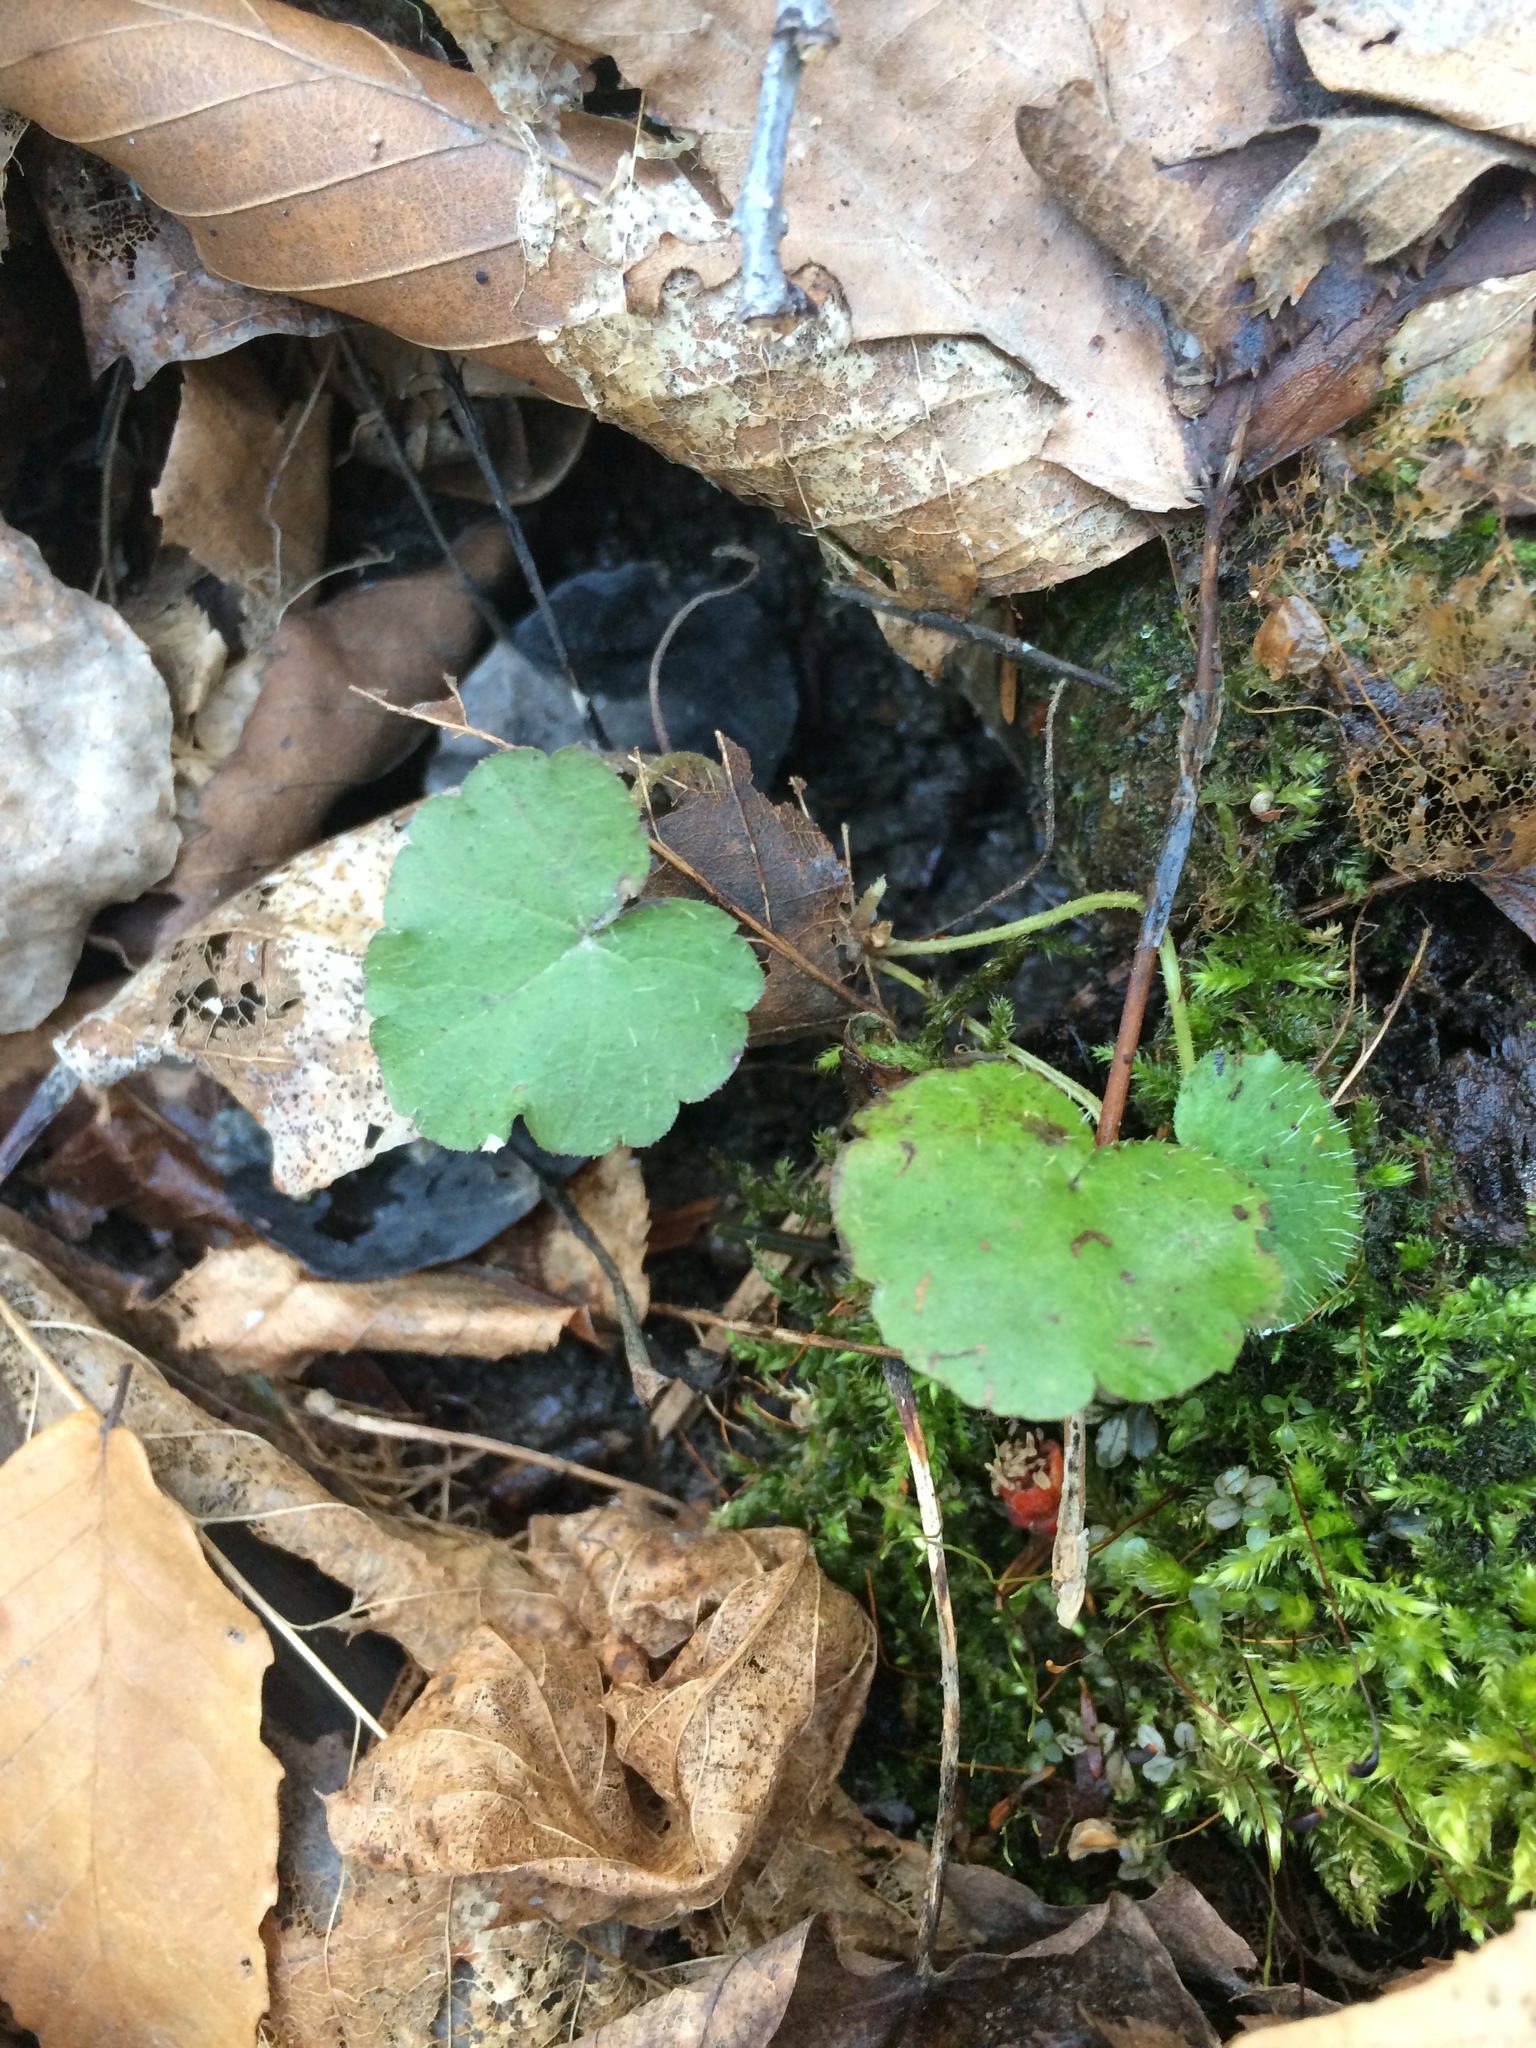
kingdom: Plantae
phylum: Tracheophyta
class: Magnoliopsida
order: Saxifragales
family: Saxifragaceae
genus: Mitella
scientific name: Mitella nuda
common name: Bare-stemmed bishop's-cap
